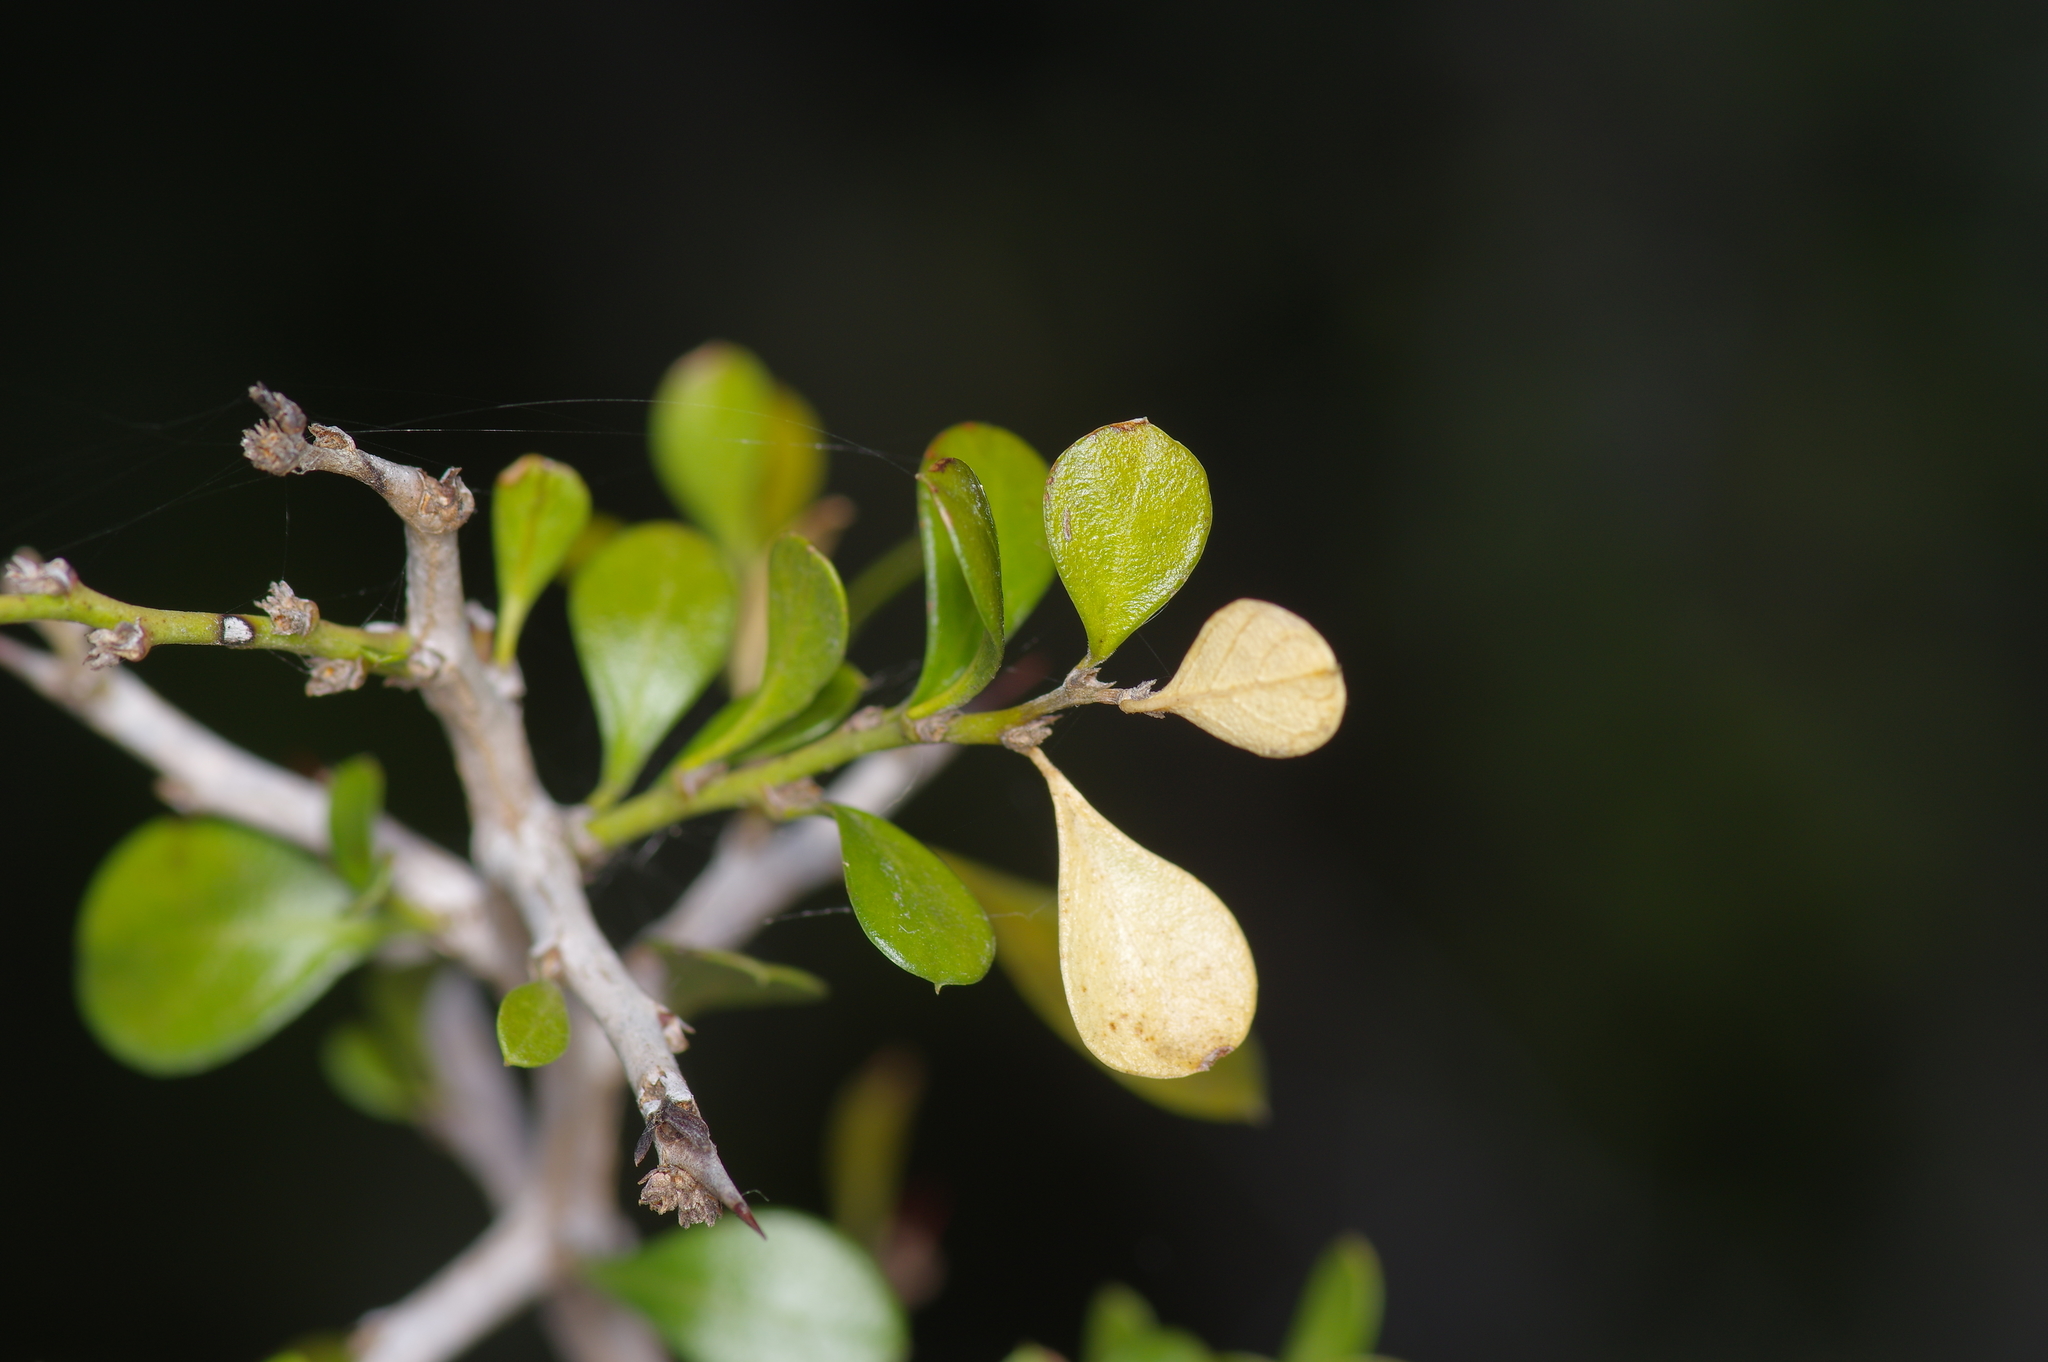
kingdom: Plantae
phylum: Tracheophyta
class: Magnoliopsida
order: Rosales
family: Rhamnaceae
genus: Condalia
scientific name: Condalia hookeri
